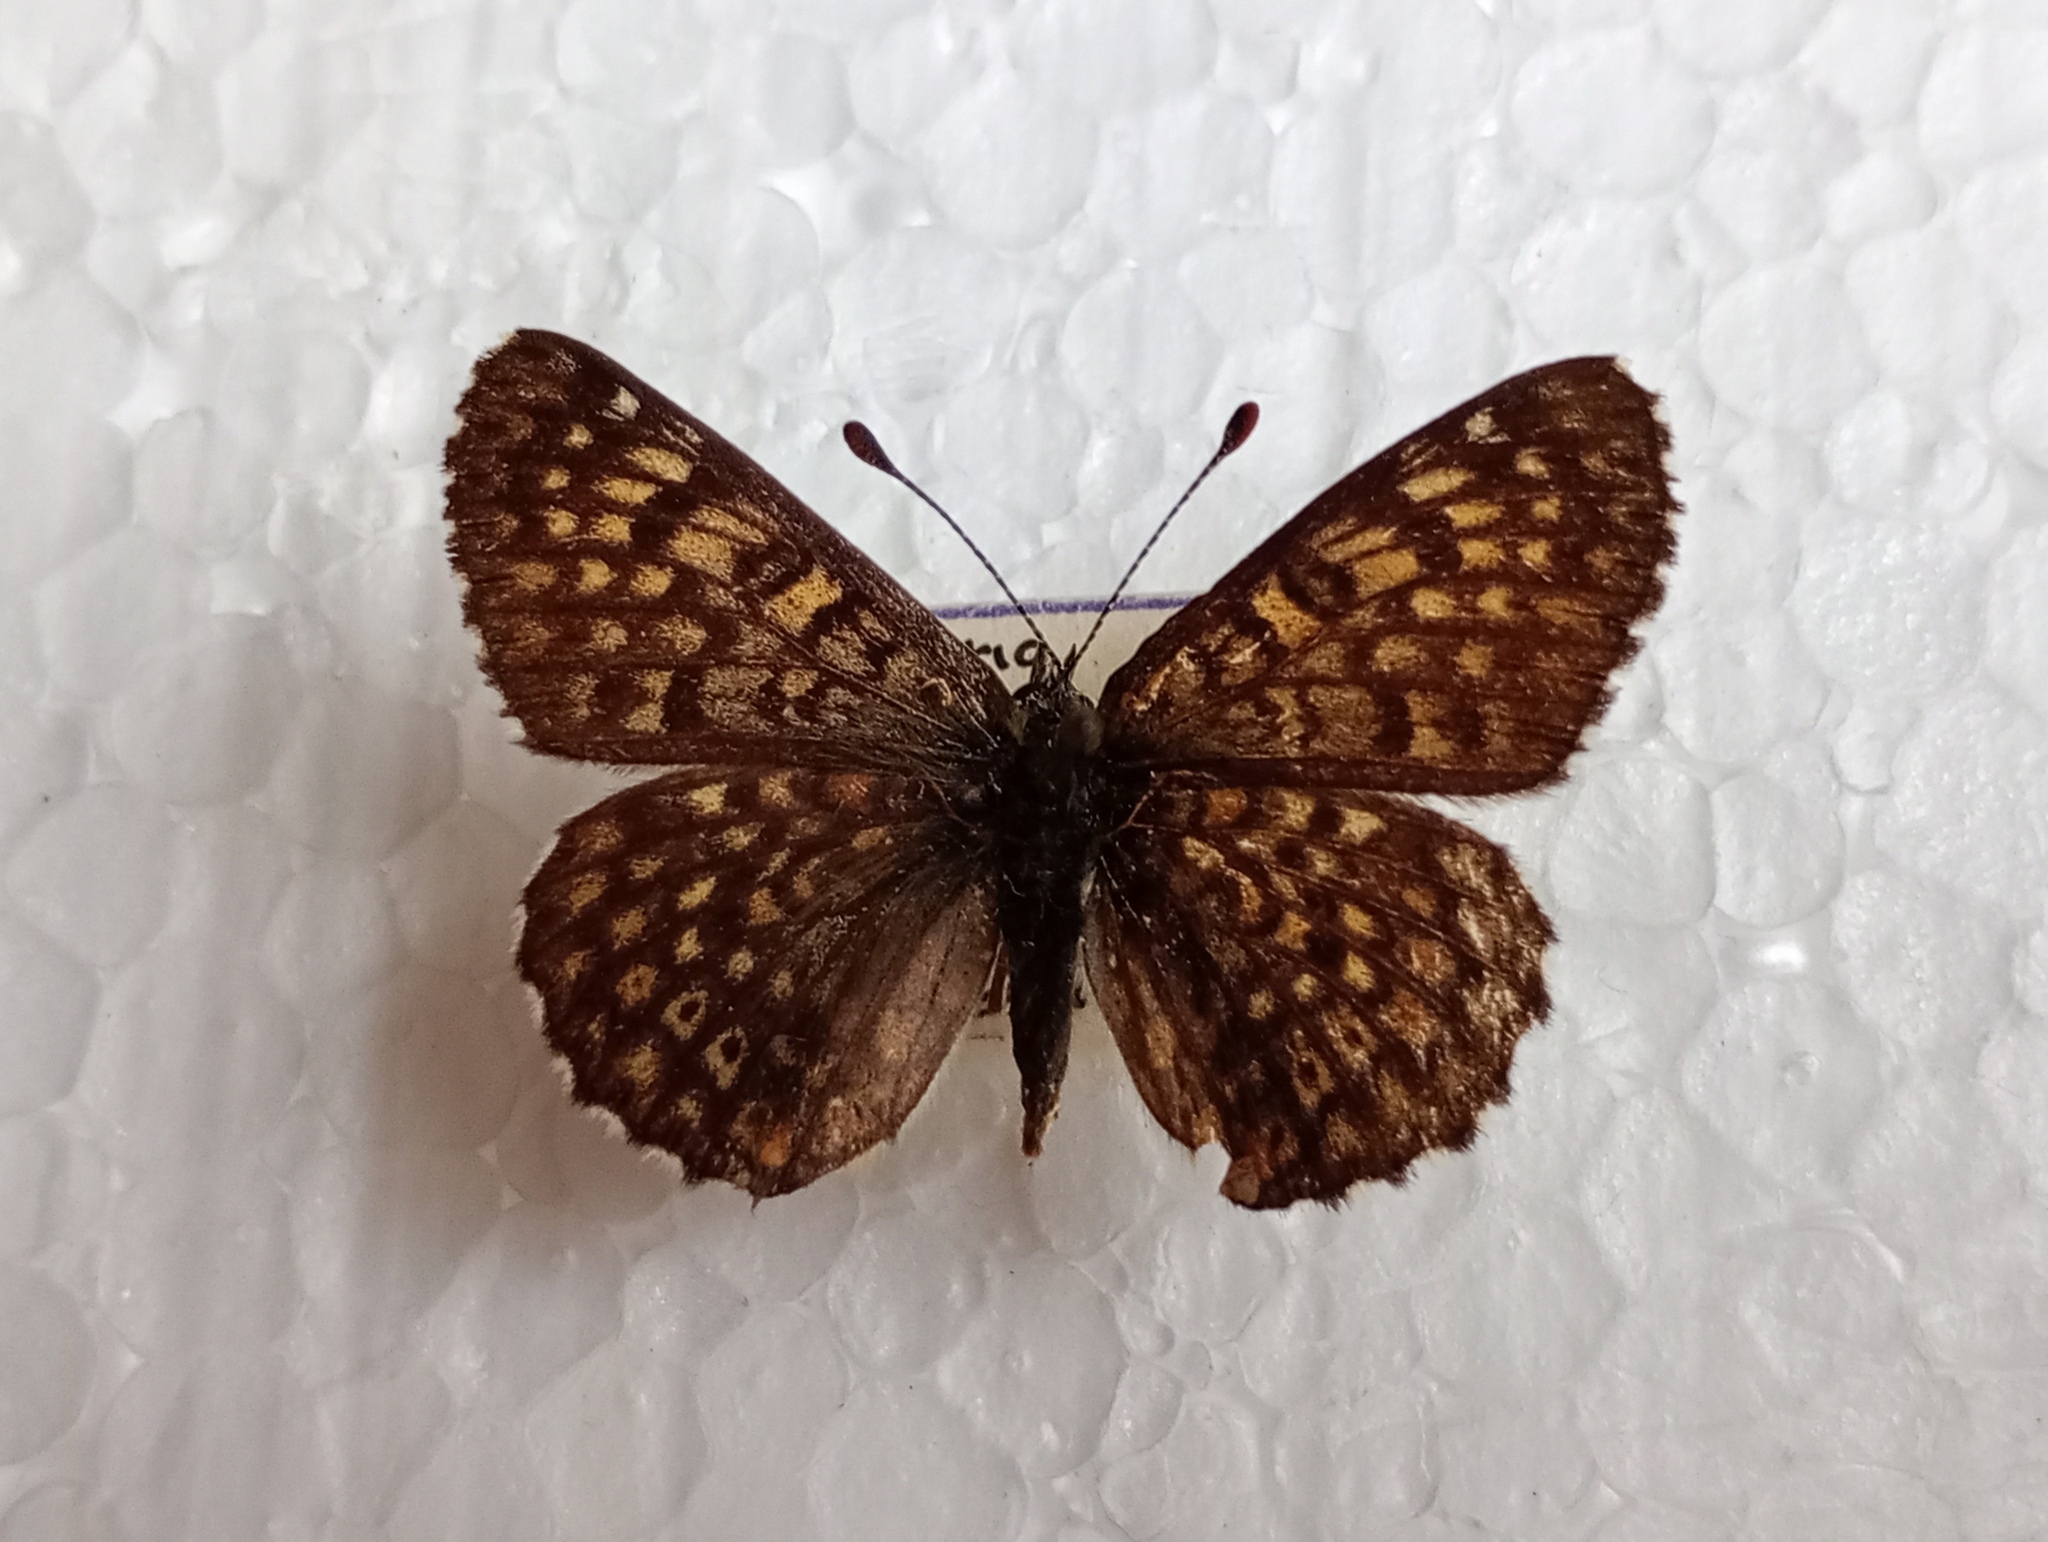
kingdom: Animalia
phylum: Arthropoda
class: Insecta
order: Lepidoptera
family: Nymphalidae
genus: Melitaea
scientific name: Melitaea cinxia
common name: Glanville fritillary
